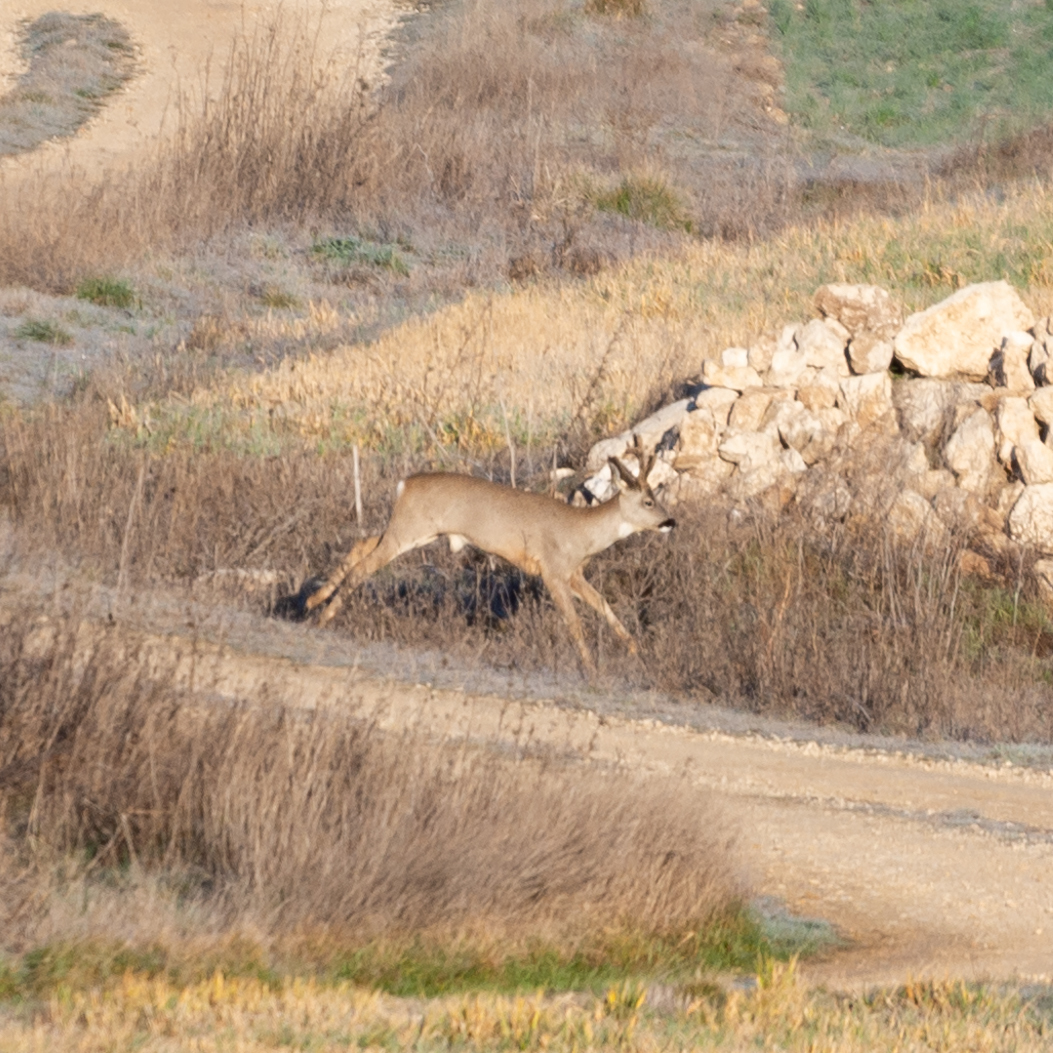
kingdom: Animalia
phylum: Chordata
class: Mammalia
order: Artiodactyla
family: Cervidae
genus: Capreolus
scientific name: Capreolus capreolus
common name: Western roe deer
